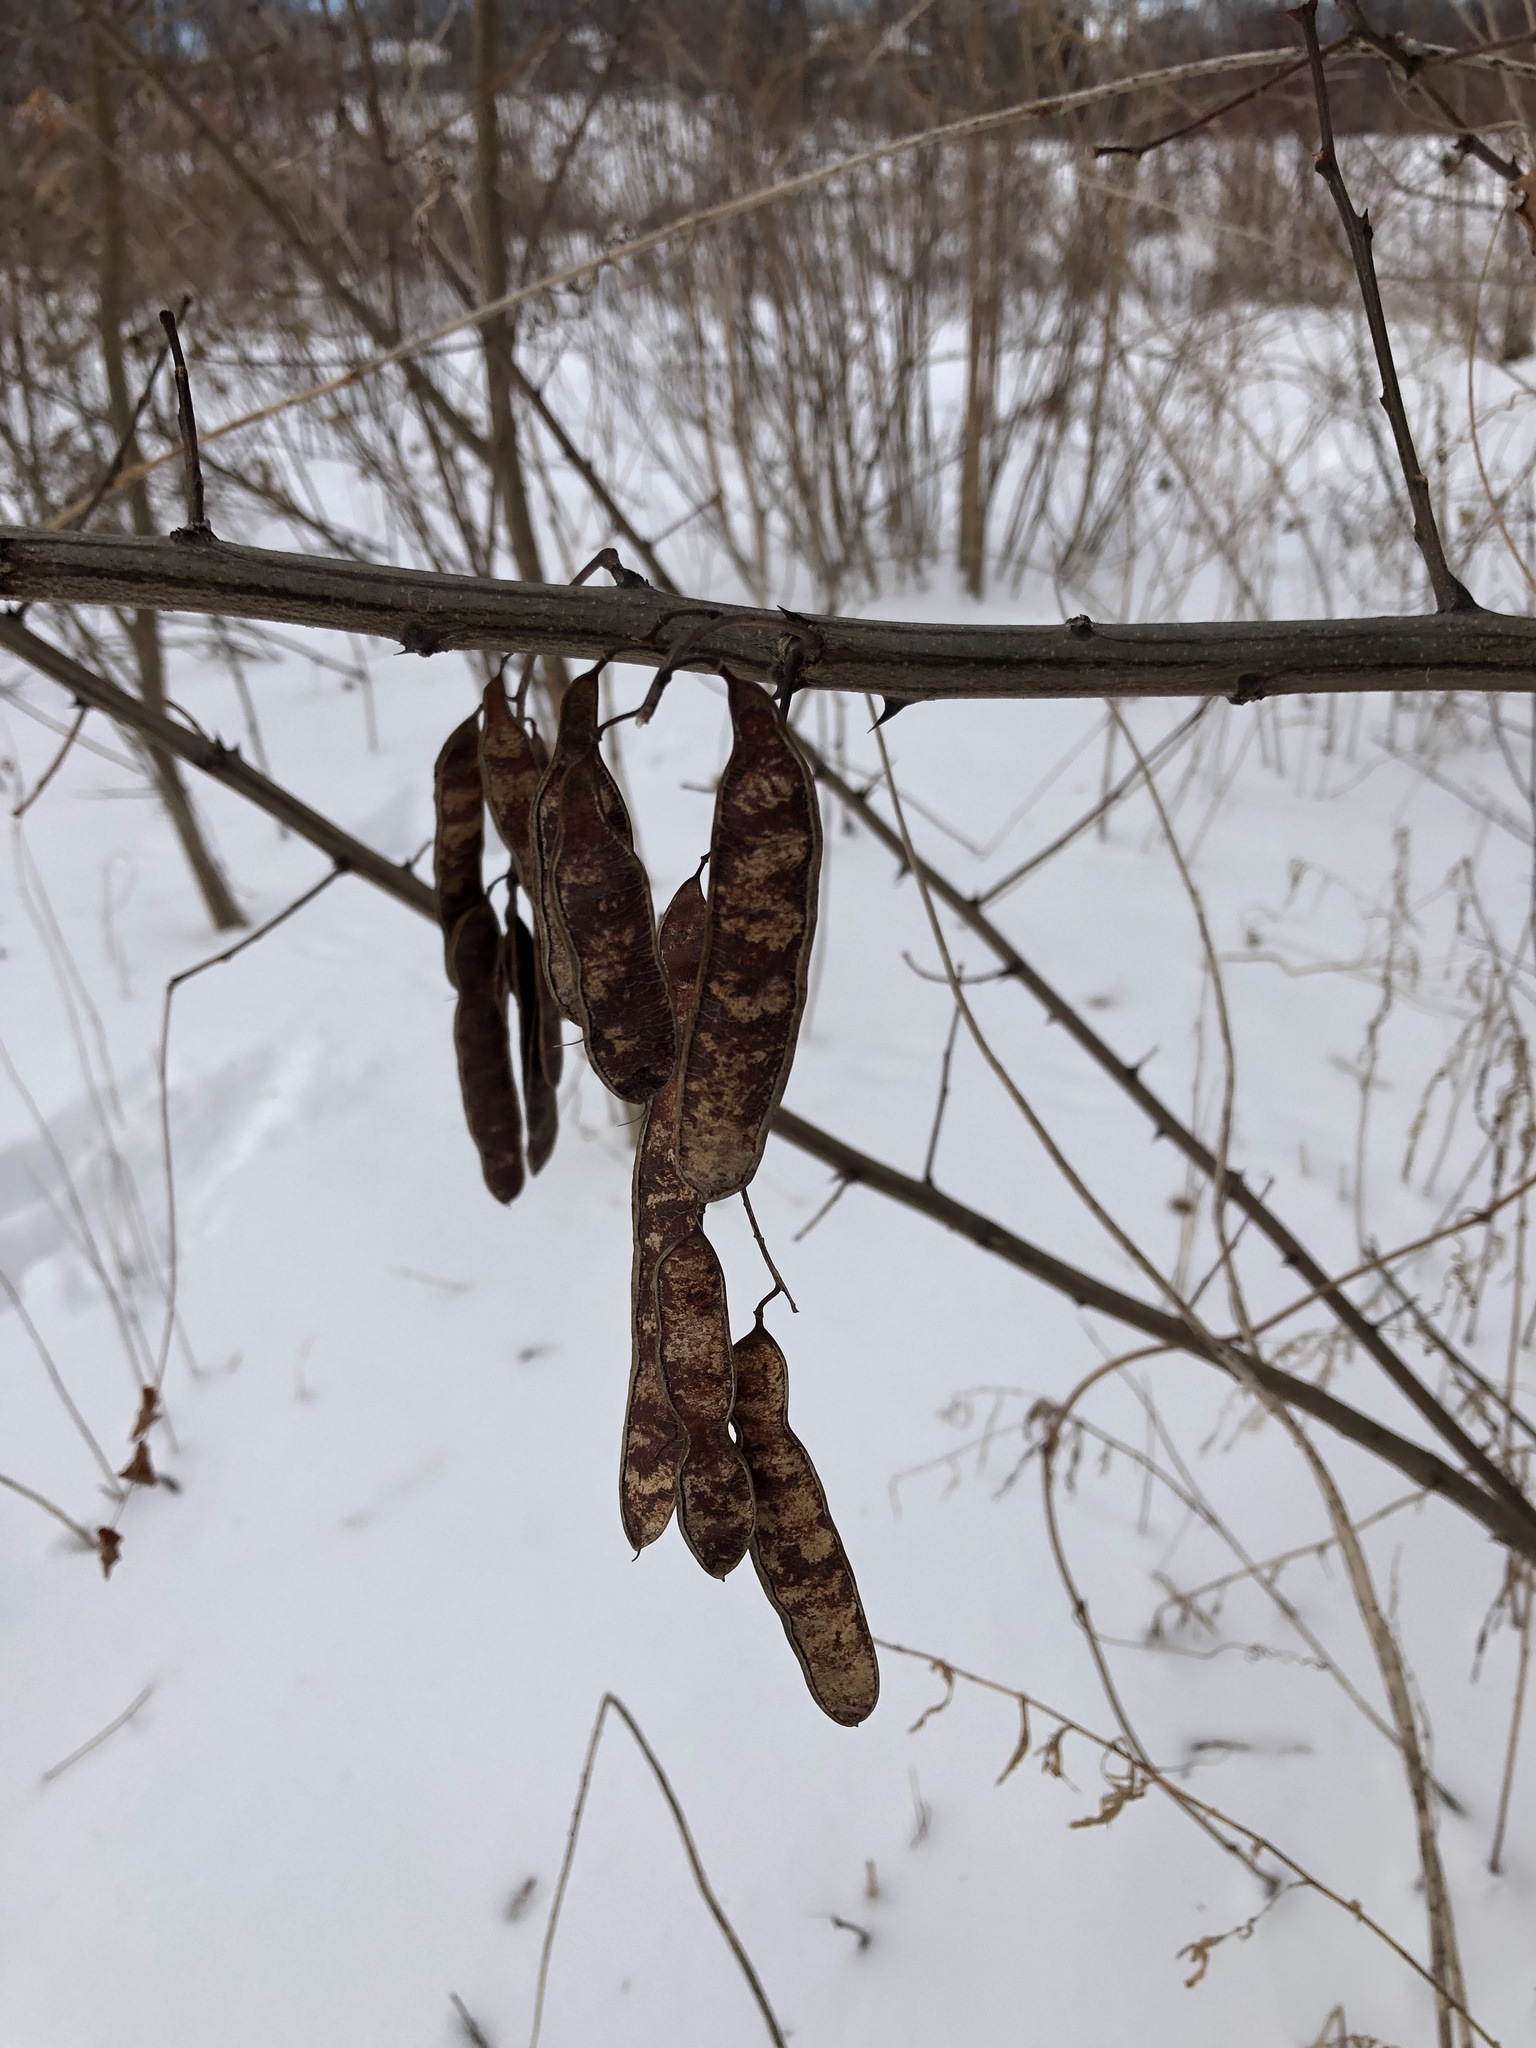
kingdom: Plantae
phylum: Tracheophyta
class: Magnoliopsida
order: Fabales
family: Fabaceae
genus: Robinia
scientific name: Robinia pseudoacacia
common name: Black locust
